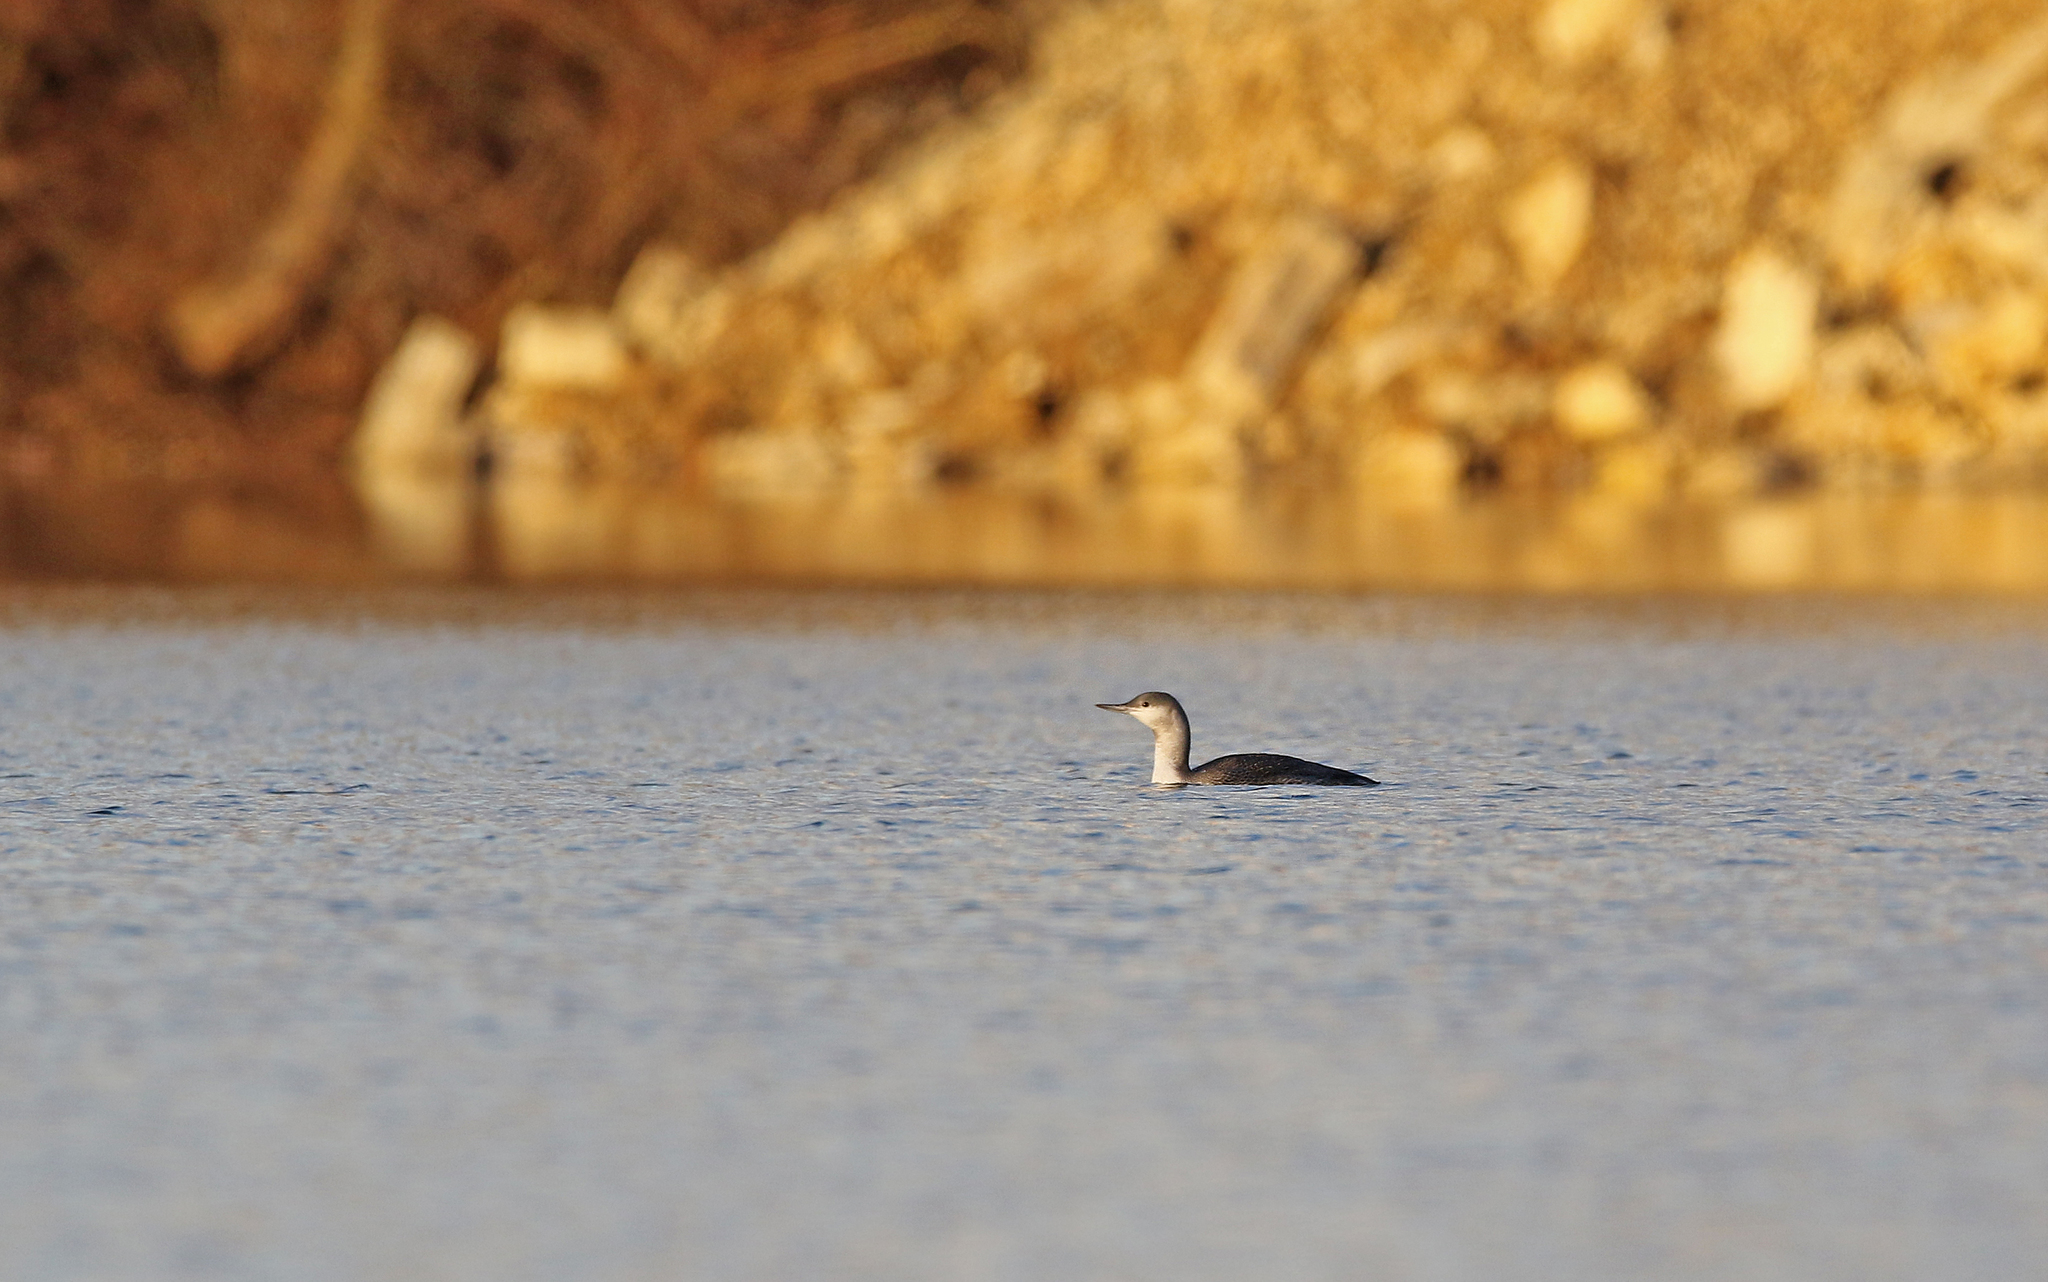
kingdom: Animalia
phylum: Chordata
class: Aves
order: Gaviiformes
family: Gaviidae
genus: Gavia
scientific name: Gavia stellata
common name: Red-throated loon
